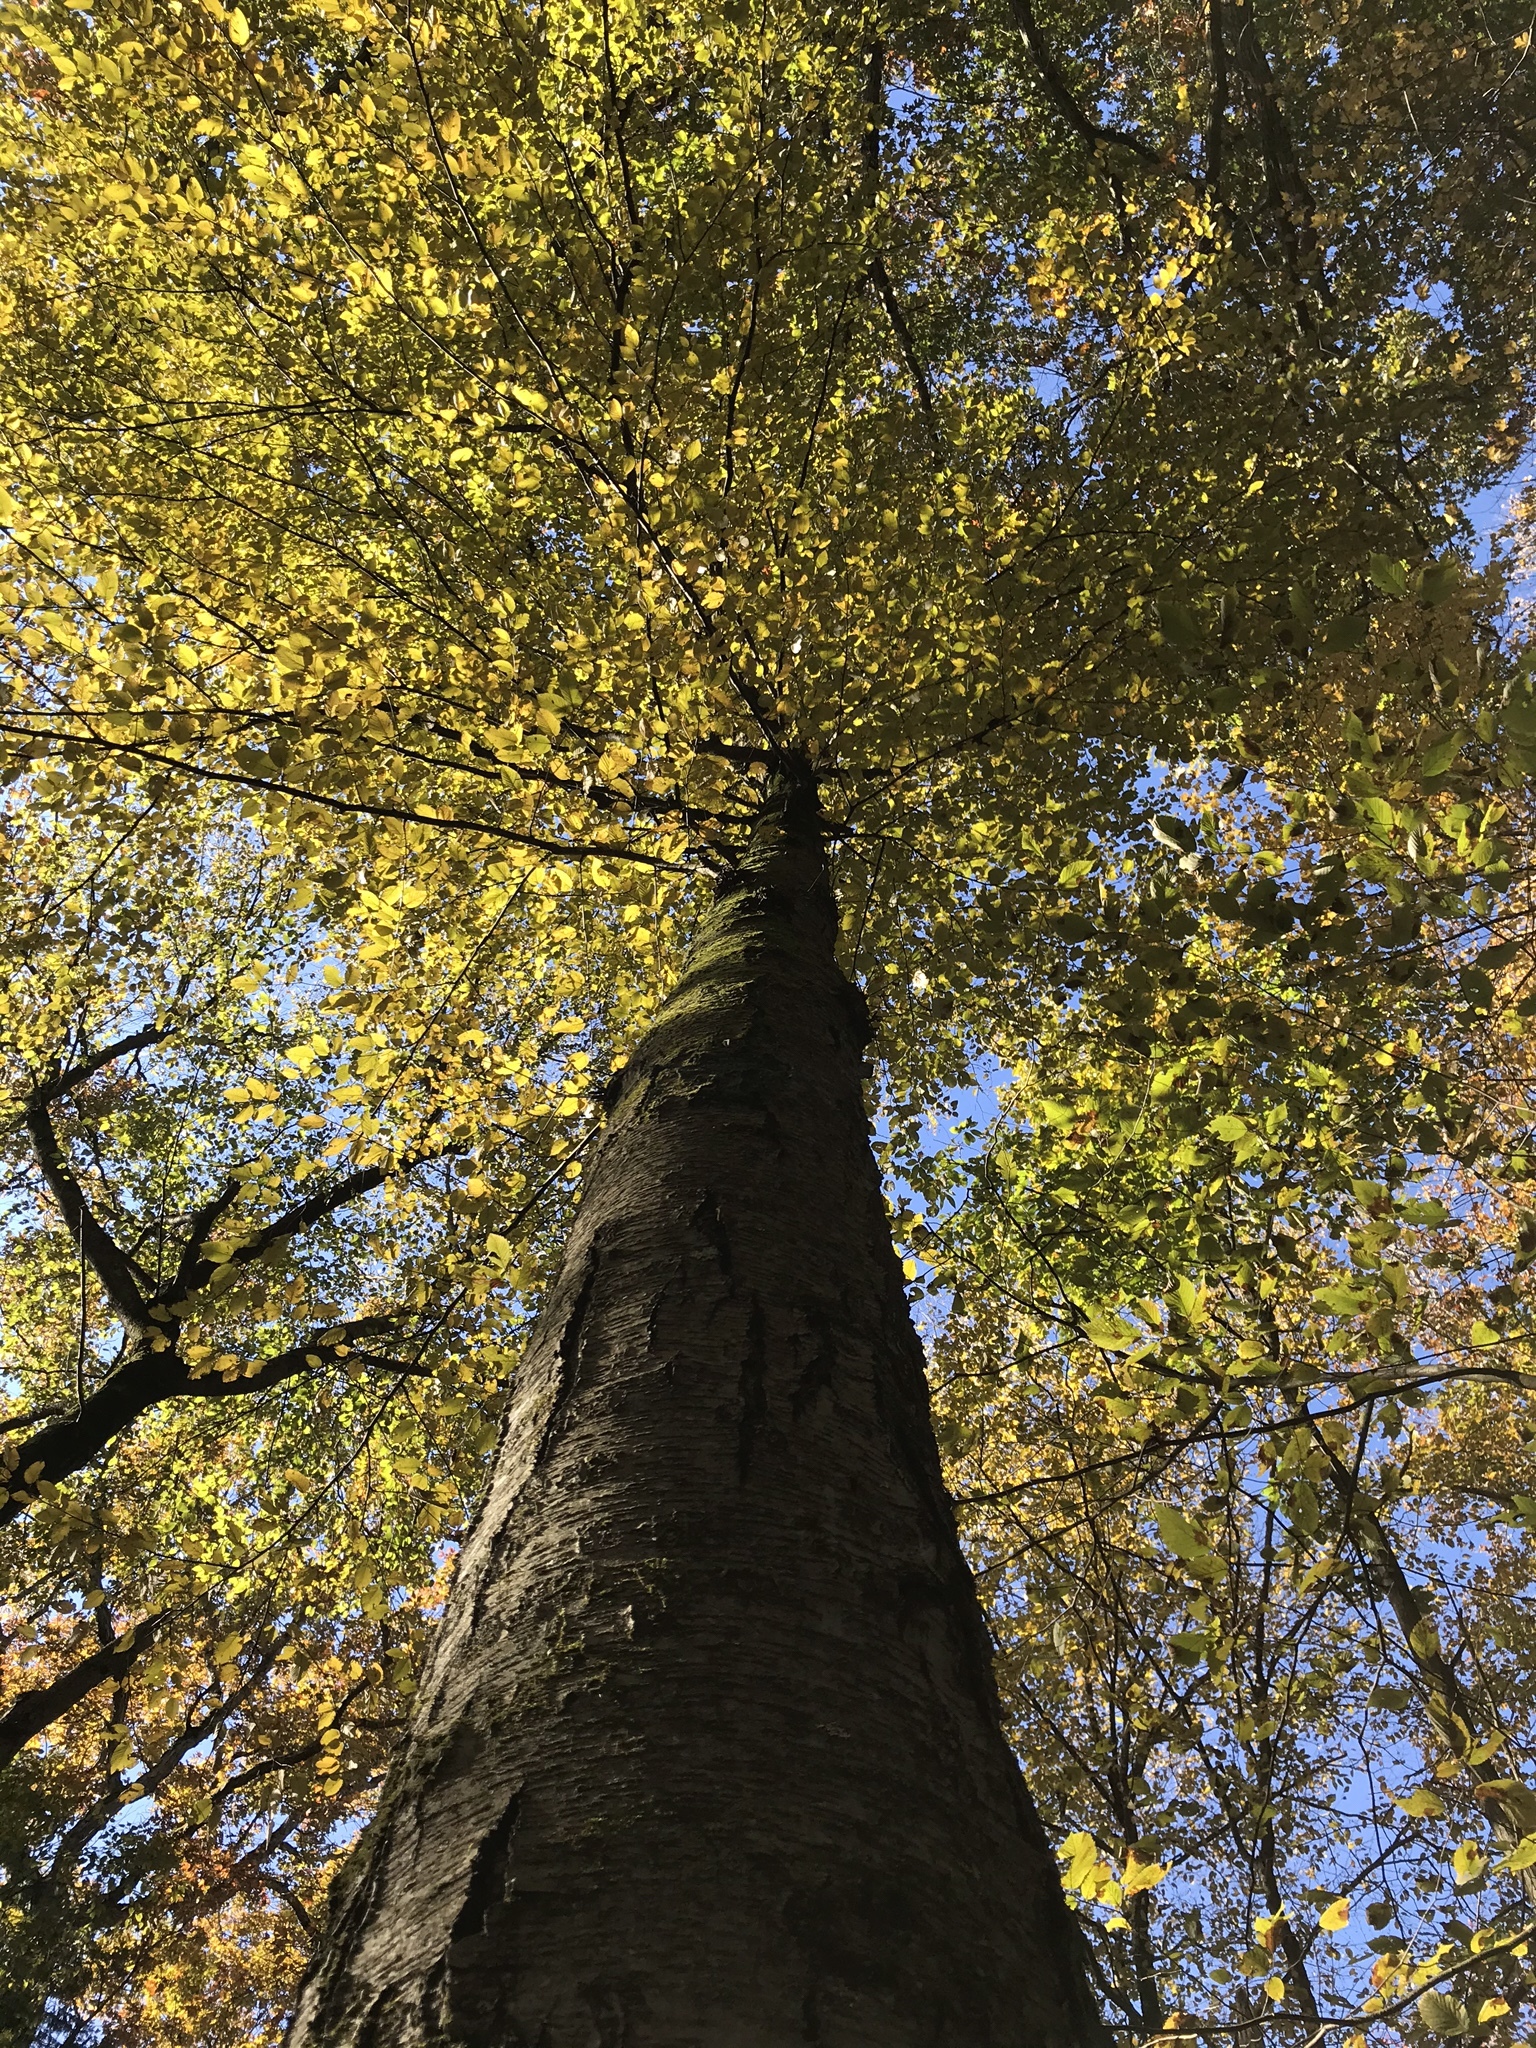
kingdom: Plantae
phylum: Tracheophyta
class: Magnoliopsida
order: Fagales
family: Betulaceae
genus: Betula
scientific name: Betula lenta
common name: Black birch
